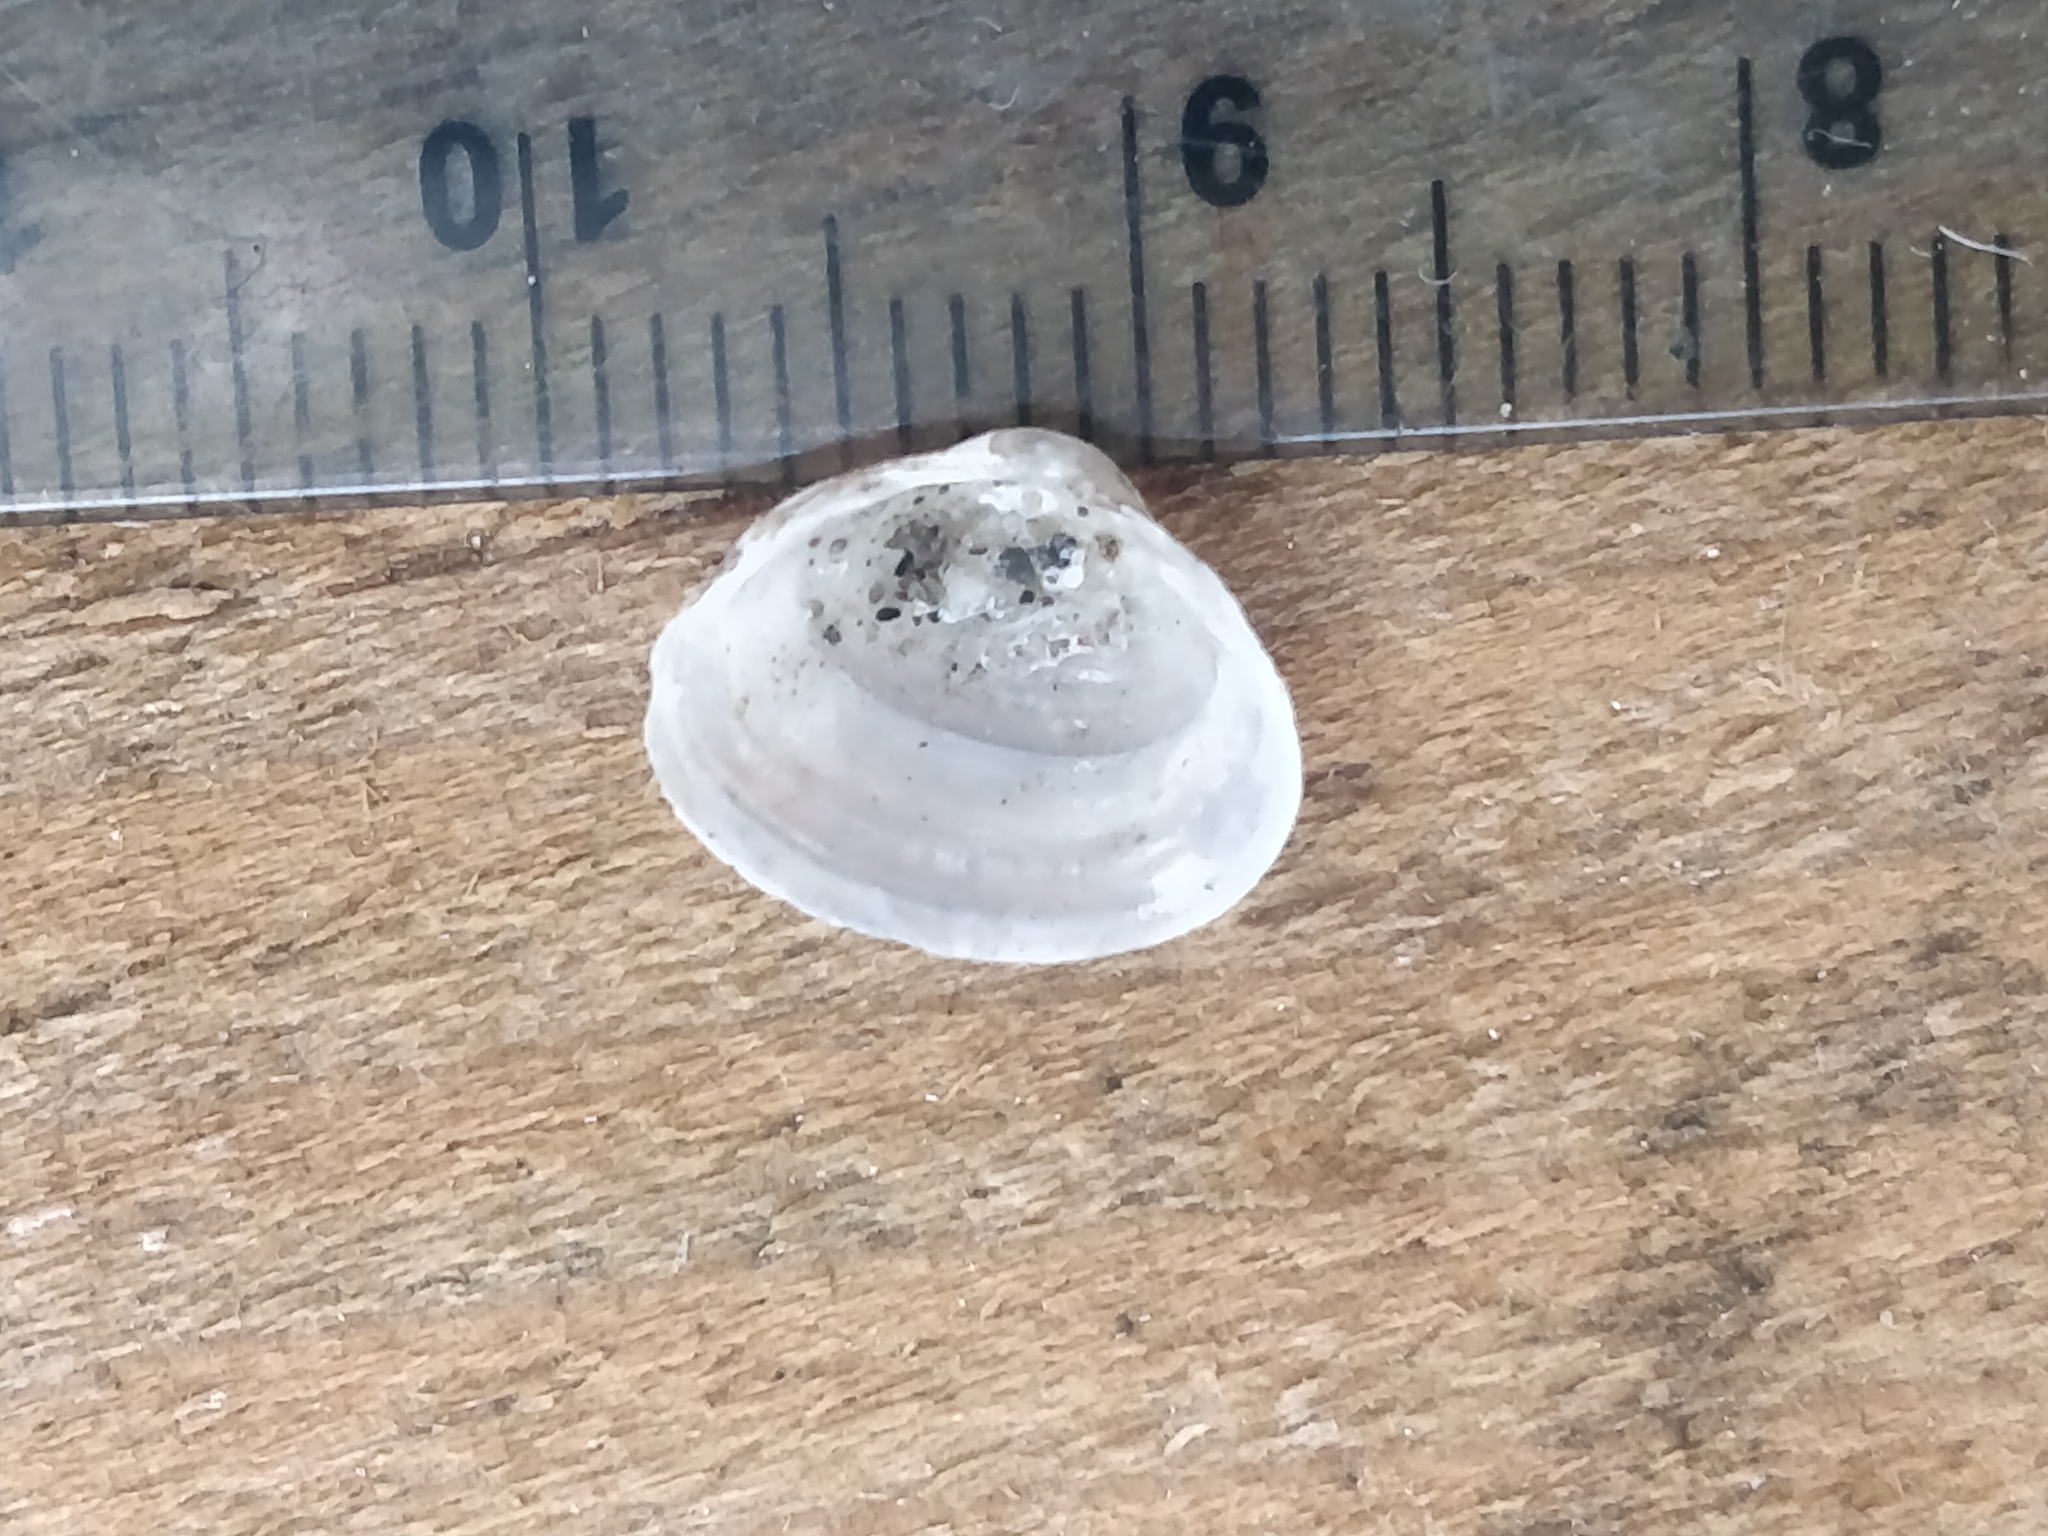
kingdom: Animalia
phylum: Mollusca
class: Bivalvia
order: Sphaeriida
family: Sphaeriidae
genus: Sphaerium
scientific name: Sphaerium striatinum
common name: Striated fingernailclam
